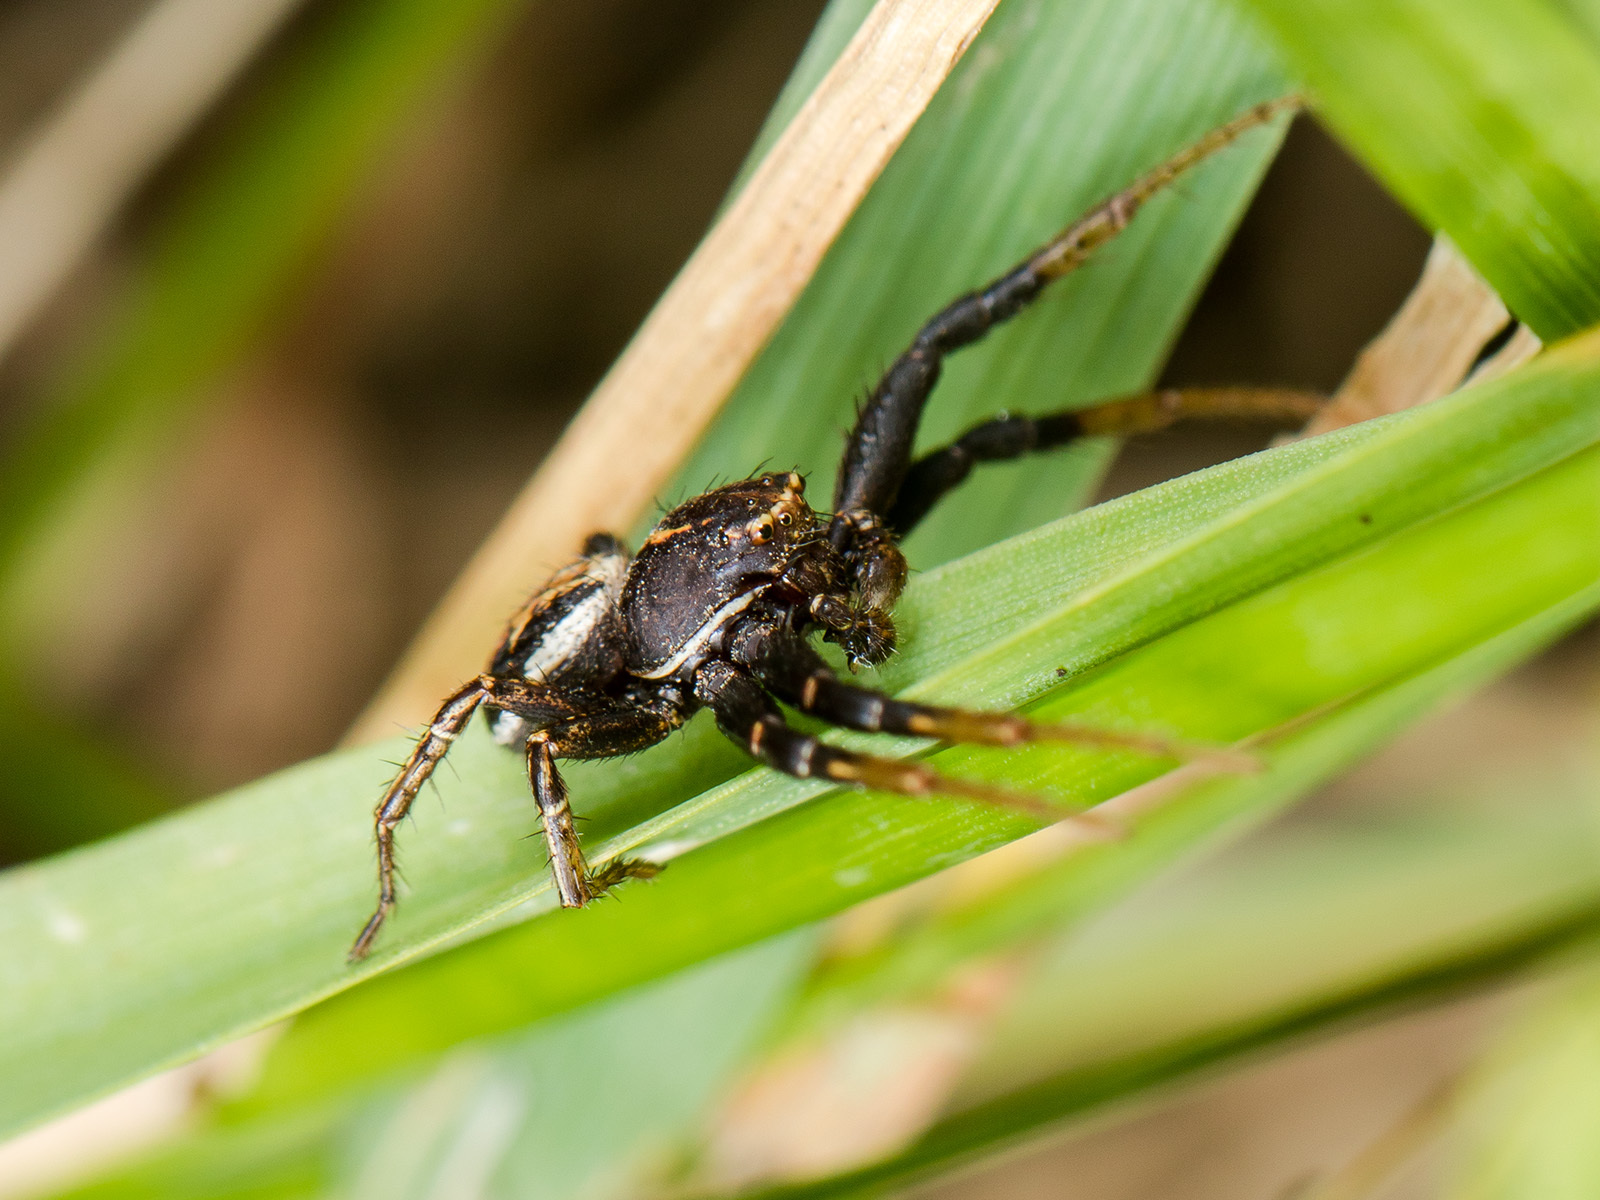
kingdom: Animalia
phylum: Arthropoda
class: Arachnida
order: Araneae
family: Thomisidae
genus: Xysticus
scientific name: Xysticus pseudocristatus
